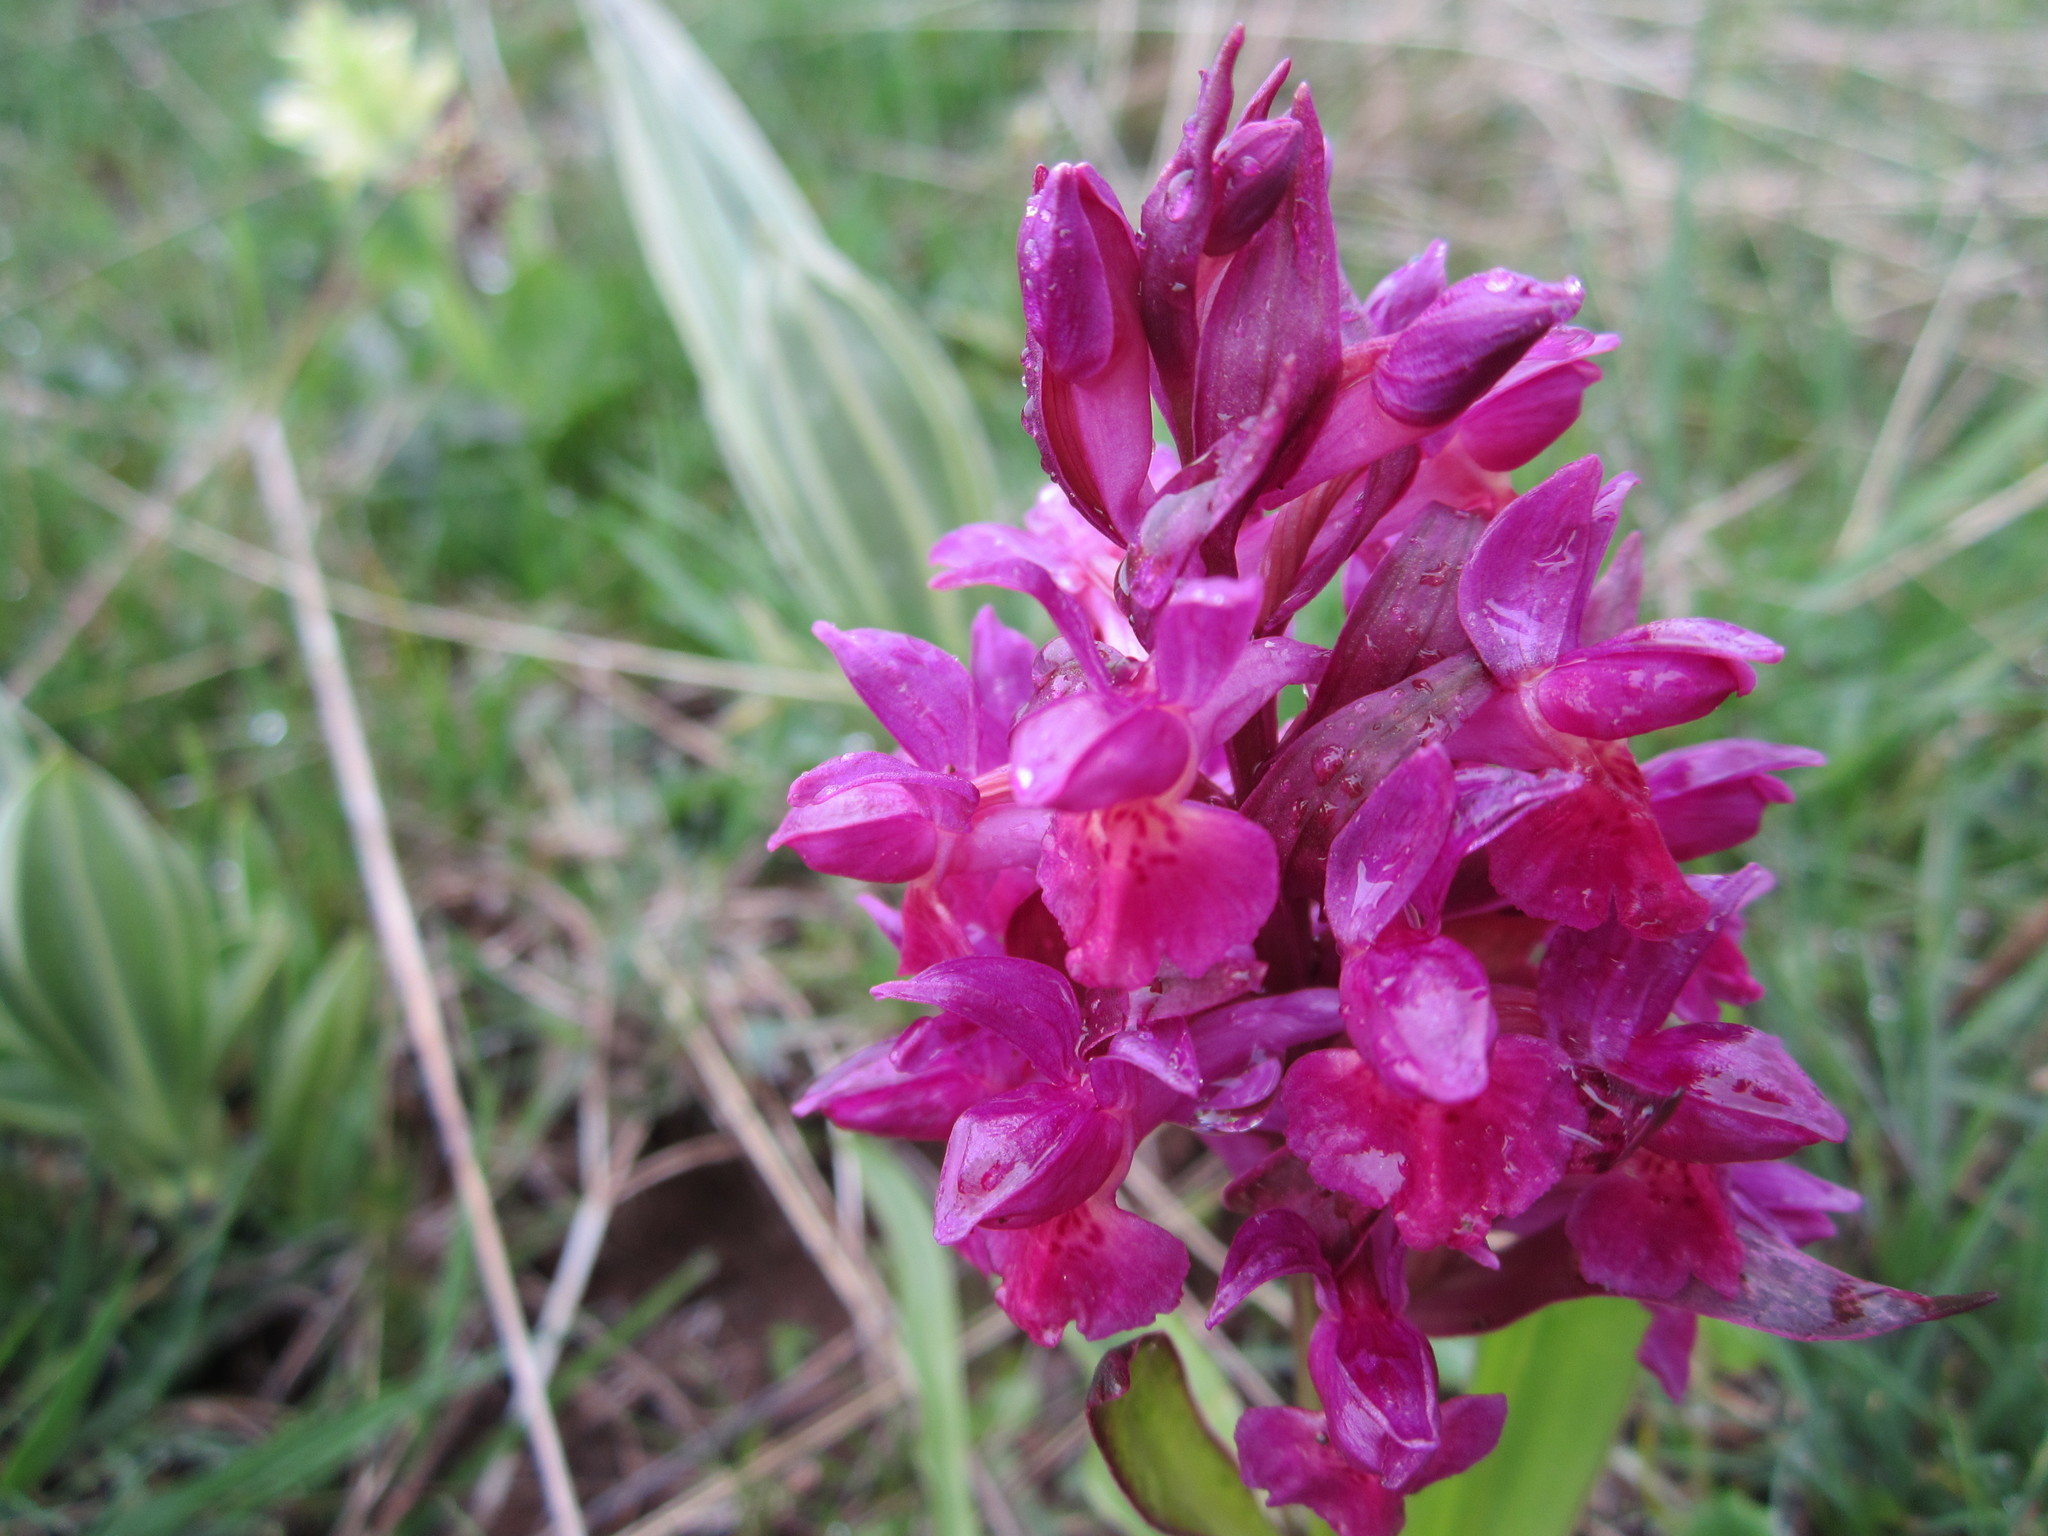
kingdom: Plantae
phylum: Tracheophyta
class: Liliopsida
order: Asparagales
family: Orchidaceae
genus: Dactylorhiza
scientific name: Dactylorhiza sambucina
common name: Elder-flowered orchid
